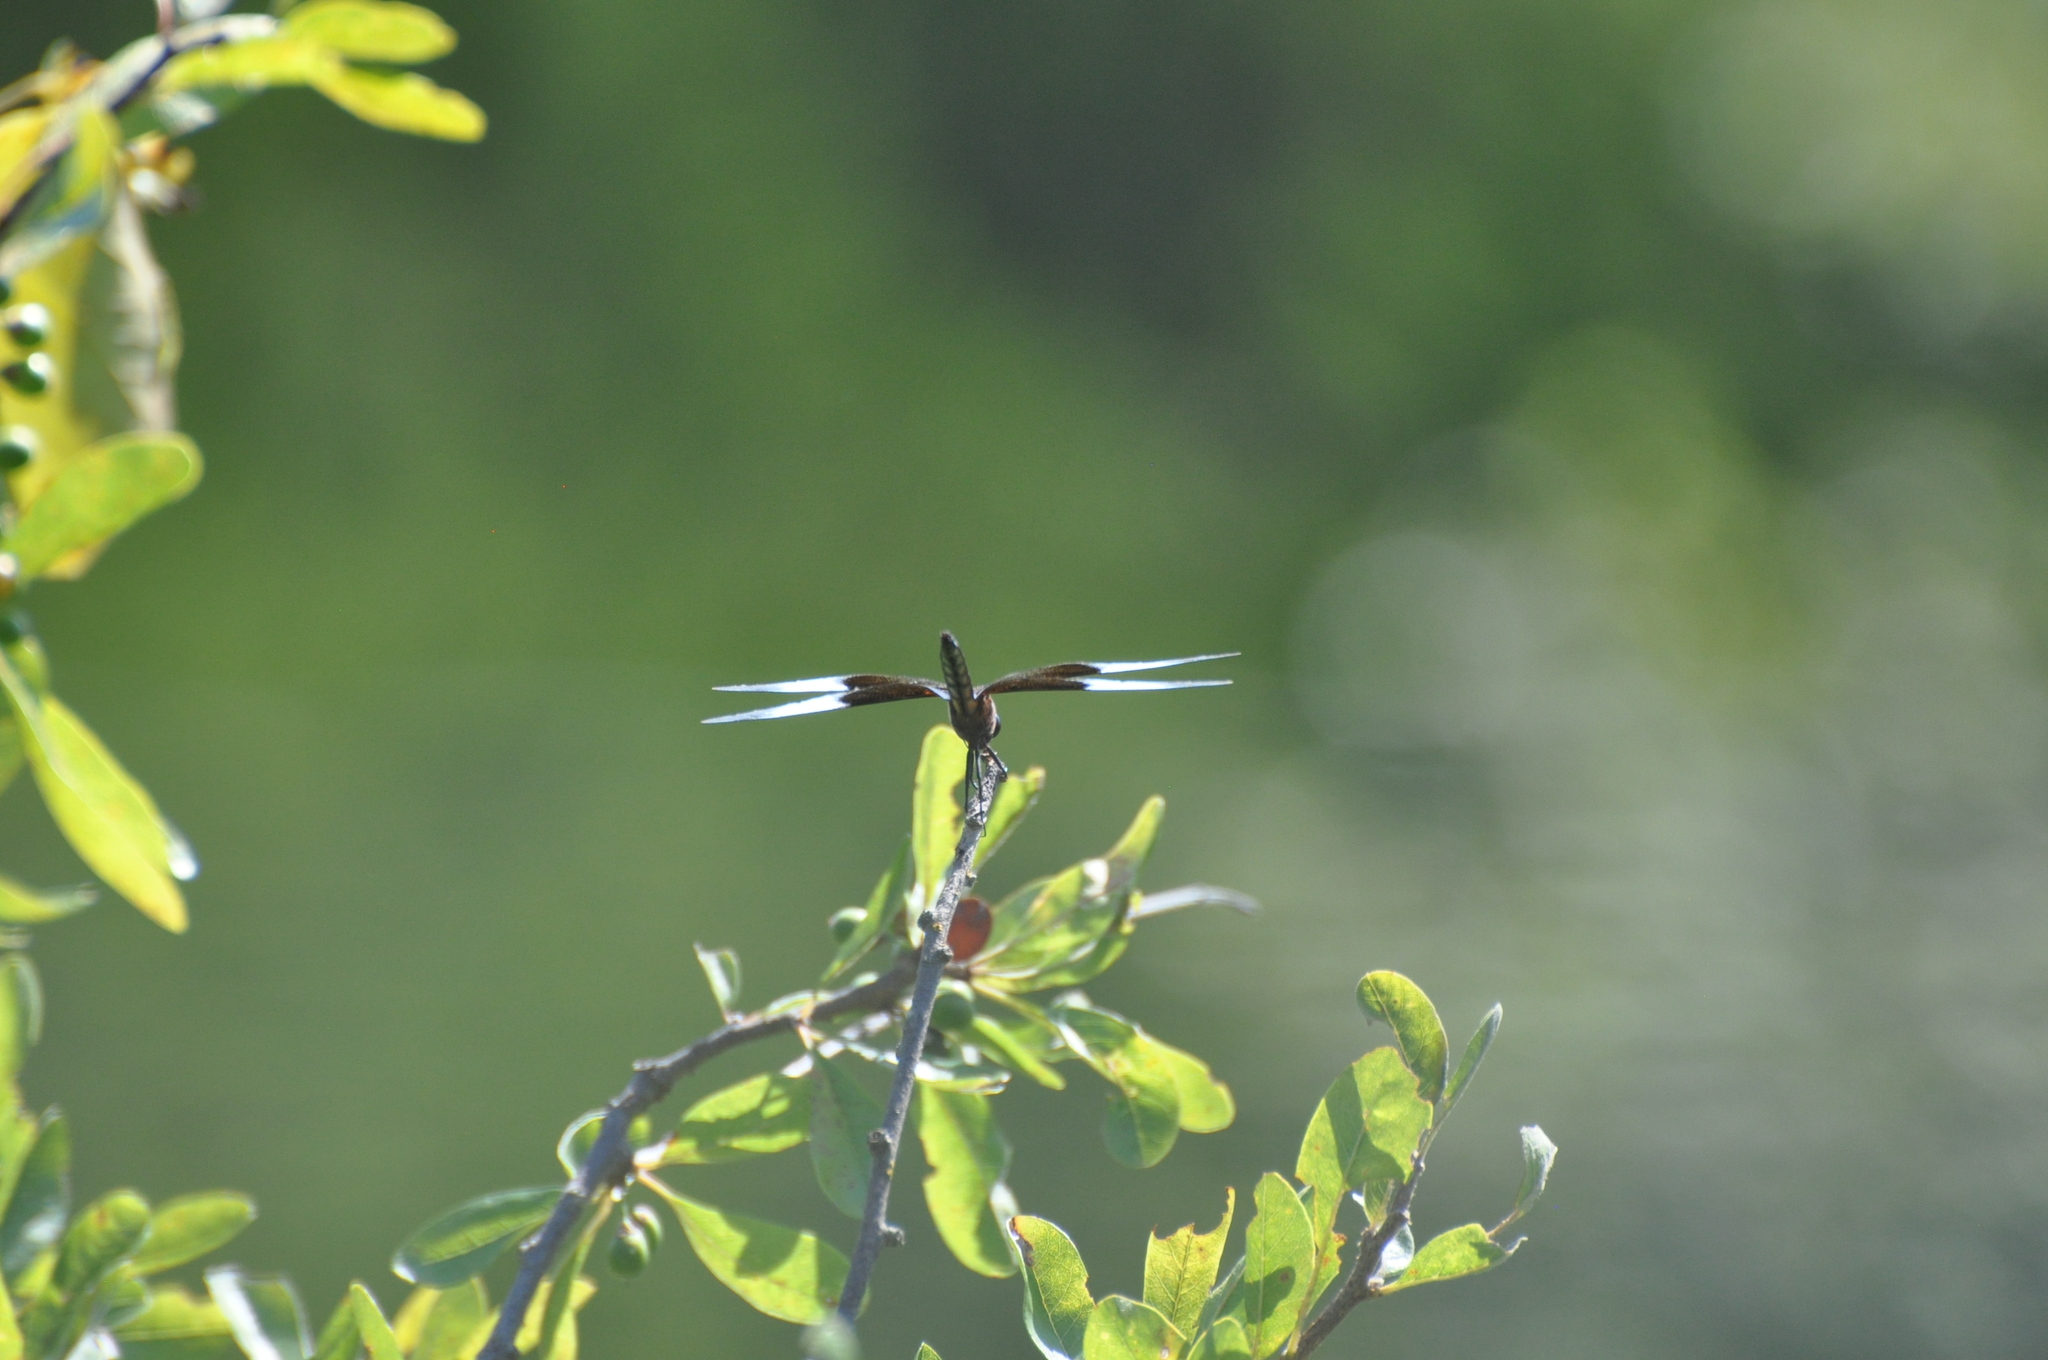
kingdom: Animalia
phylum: Arthropoda
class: Insecta
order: Odonata
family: Libellulidae
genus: Libellula
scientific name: Libellula luctuosa
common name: Widow skimmer
